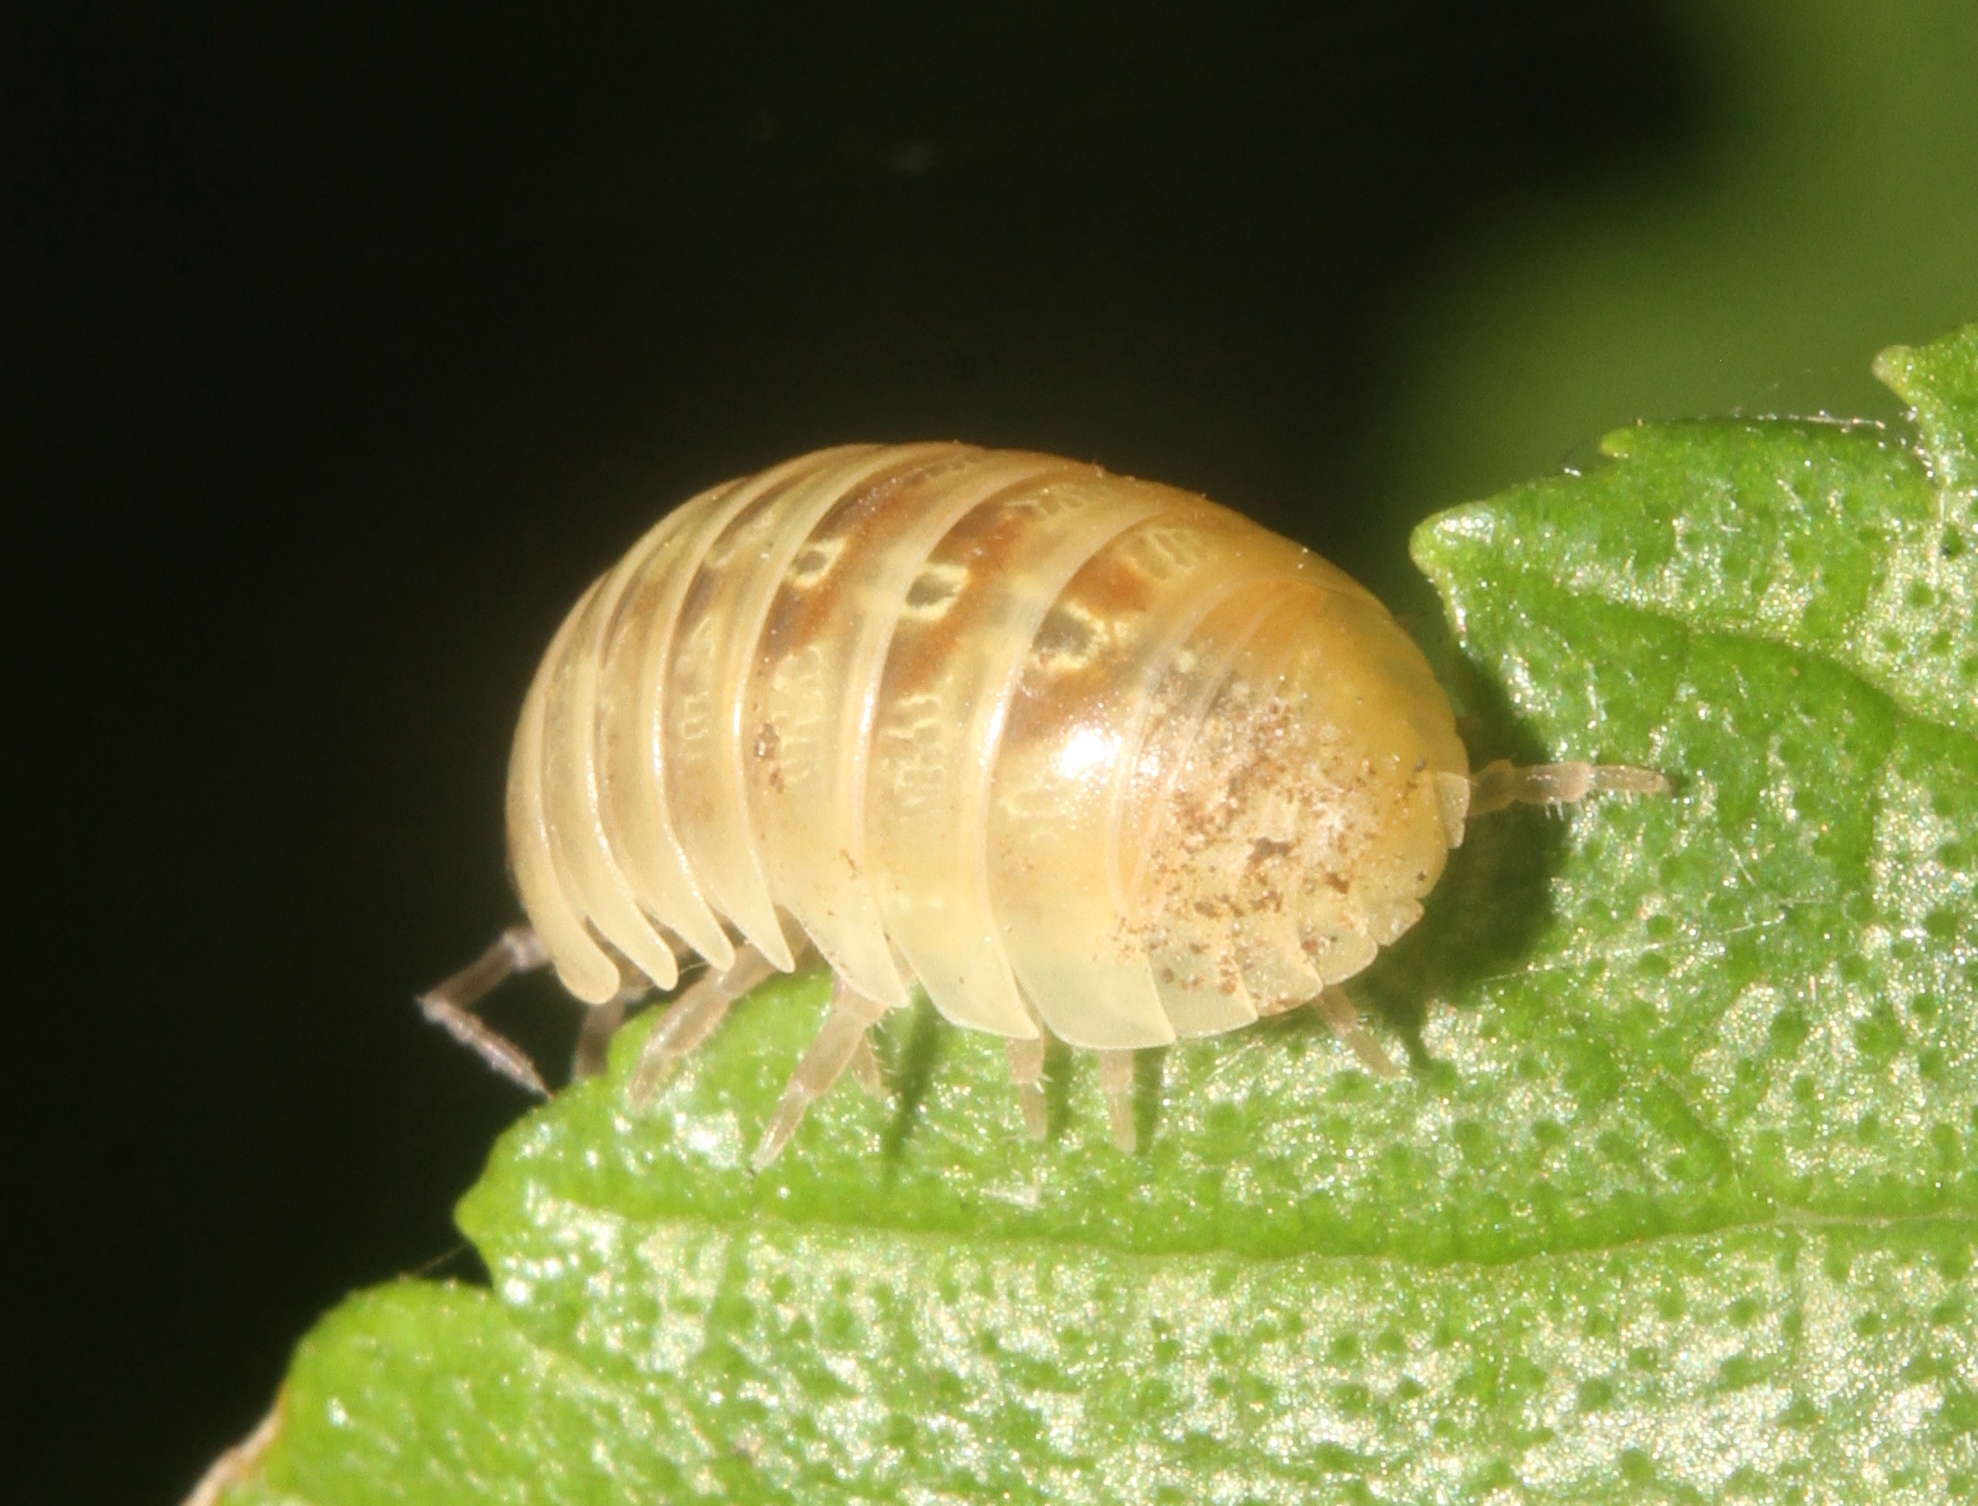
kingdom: Animalia
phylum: Arthropoda
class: Malacostraca
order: Isopoda
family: Armadillidiidae
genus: Armadillidium
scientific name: Armadillidium vulgare
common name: Common pill woodlouse
